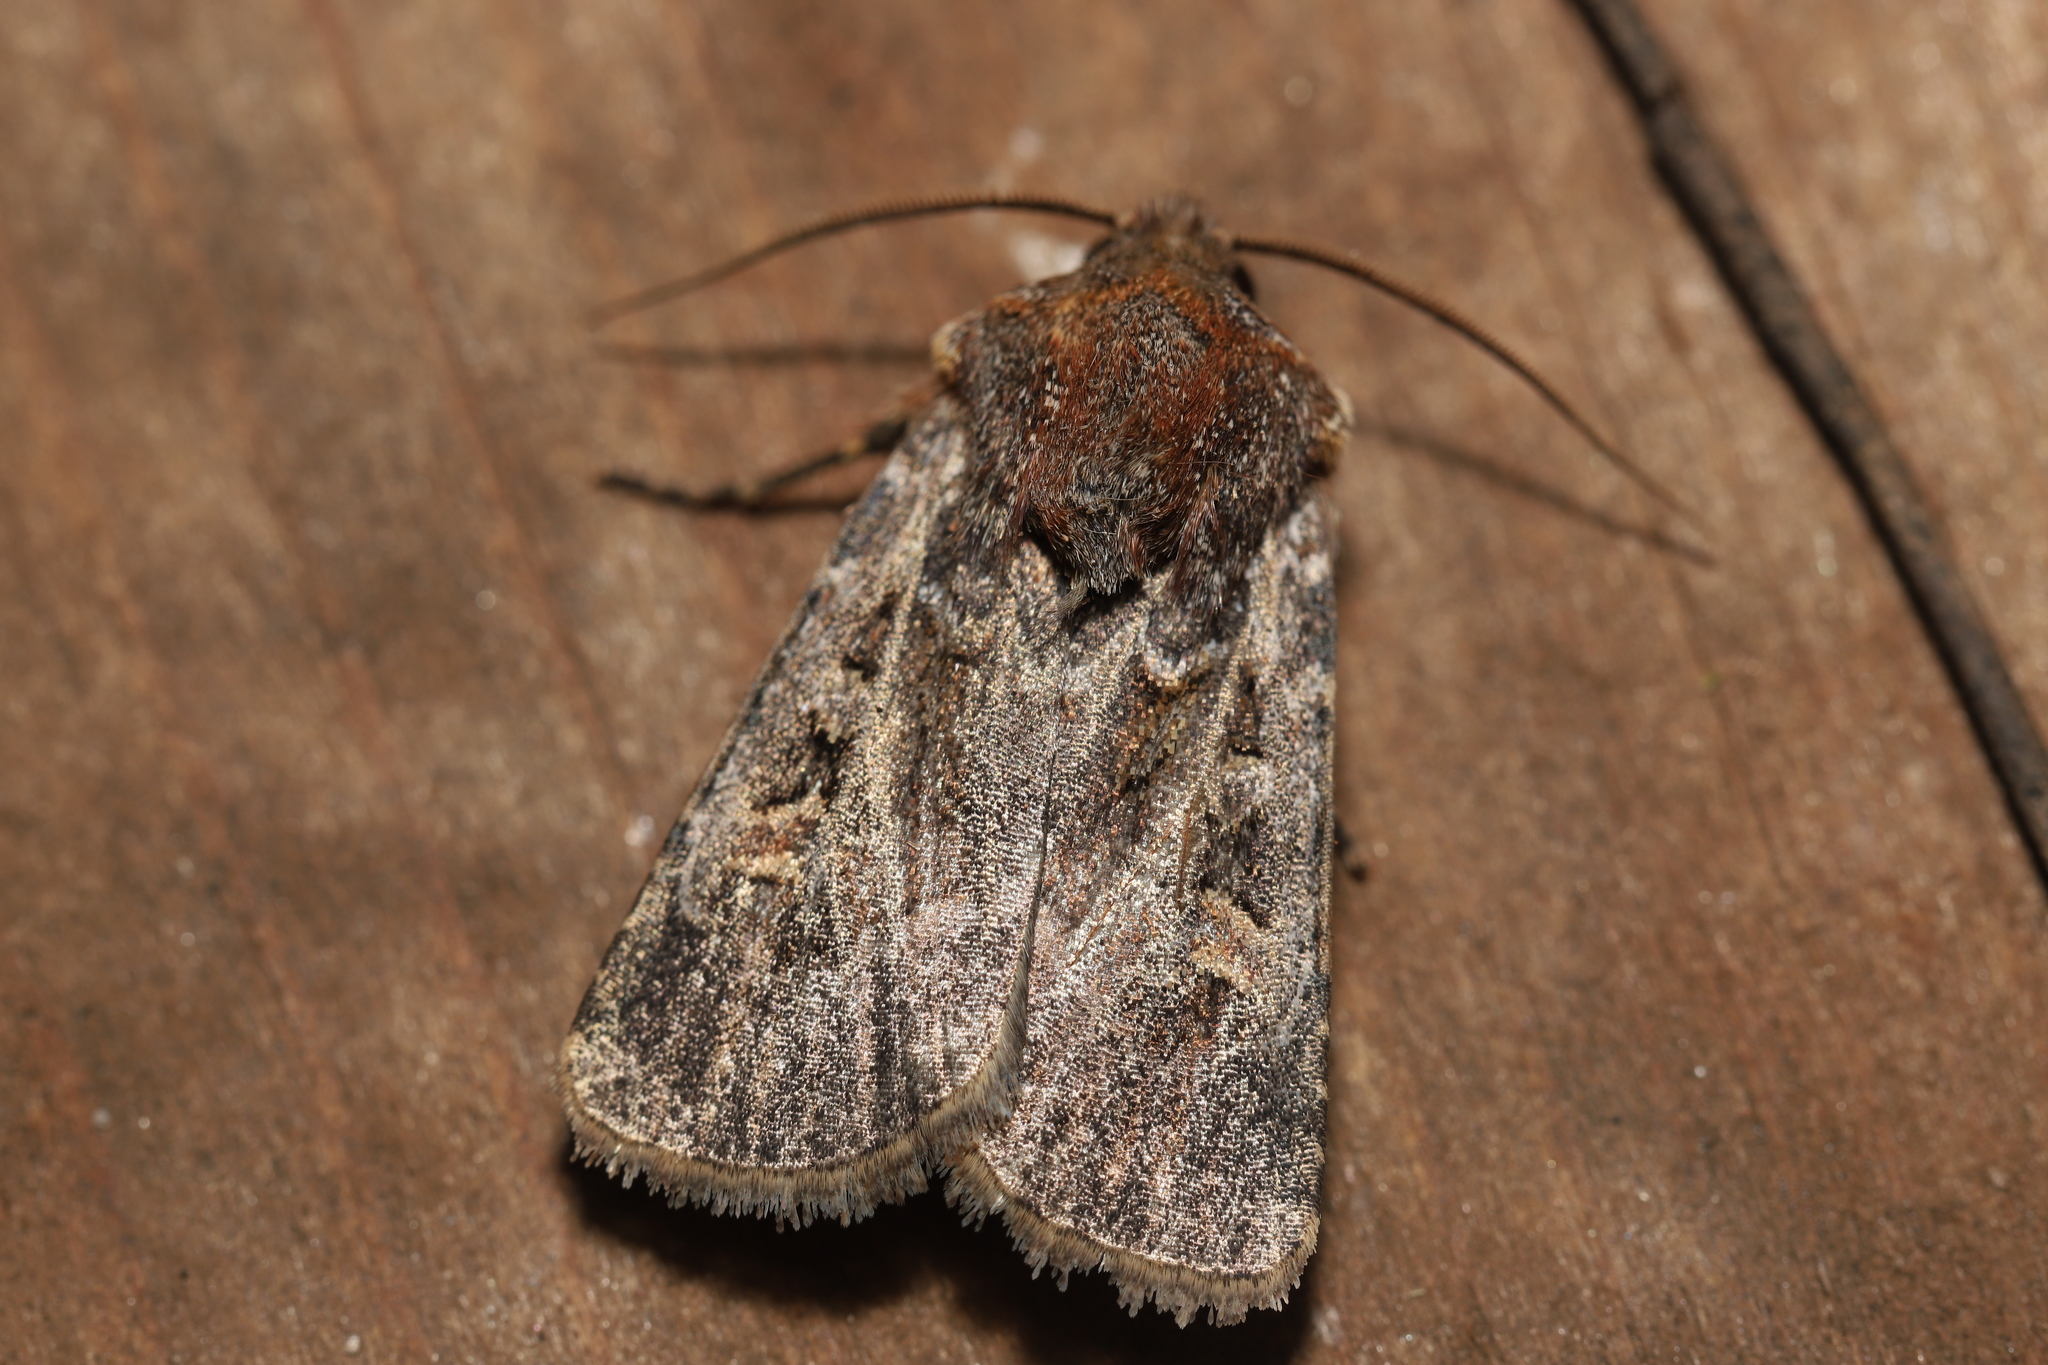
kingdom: Animalia
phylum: Arthropoda
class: Insecta
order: Lepidoptera
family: Noctuidae
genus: Euxoa
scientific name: Euxoa tessellata
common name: Striped cutworm
